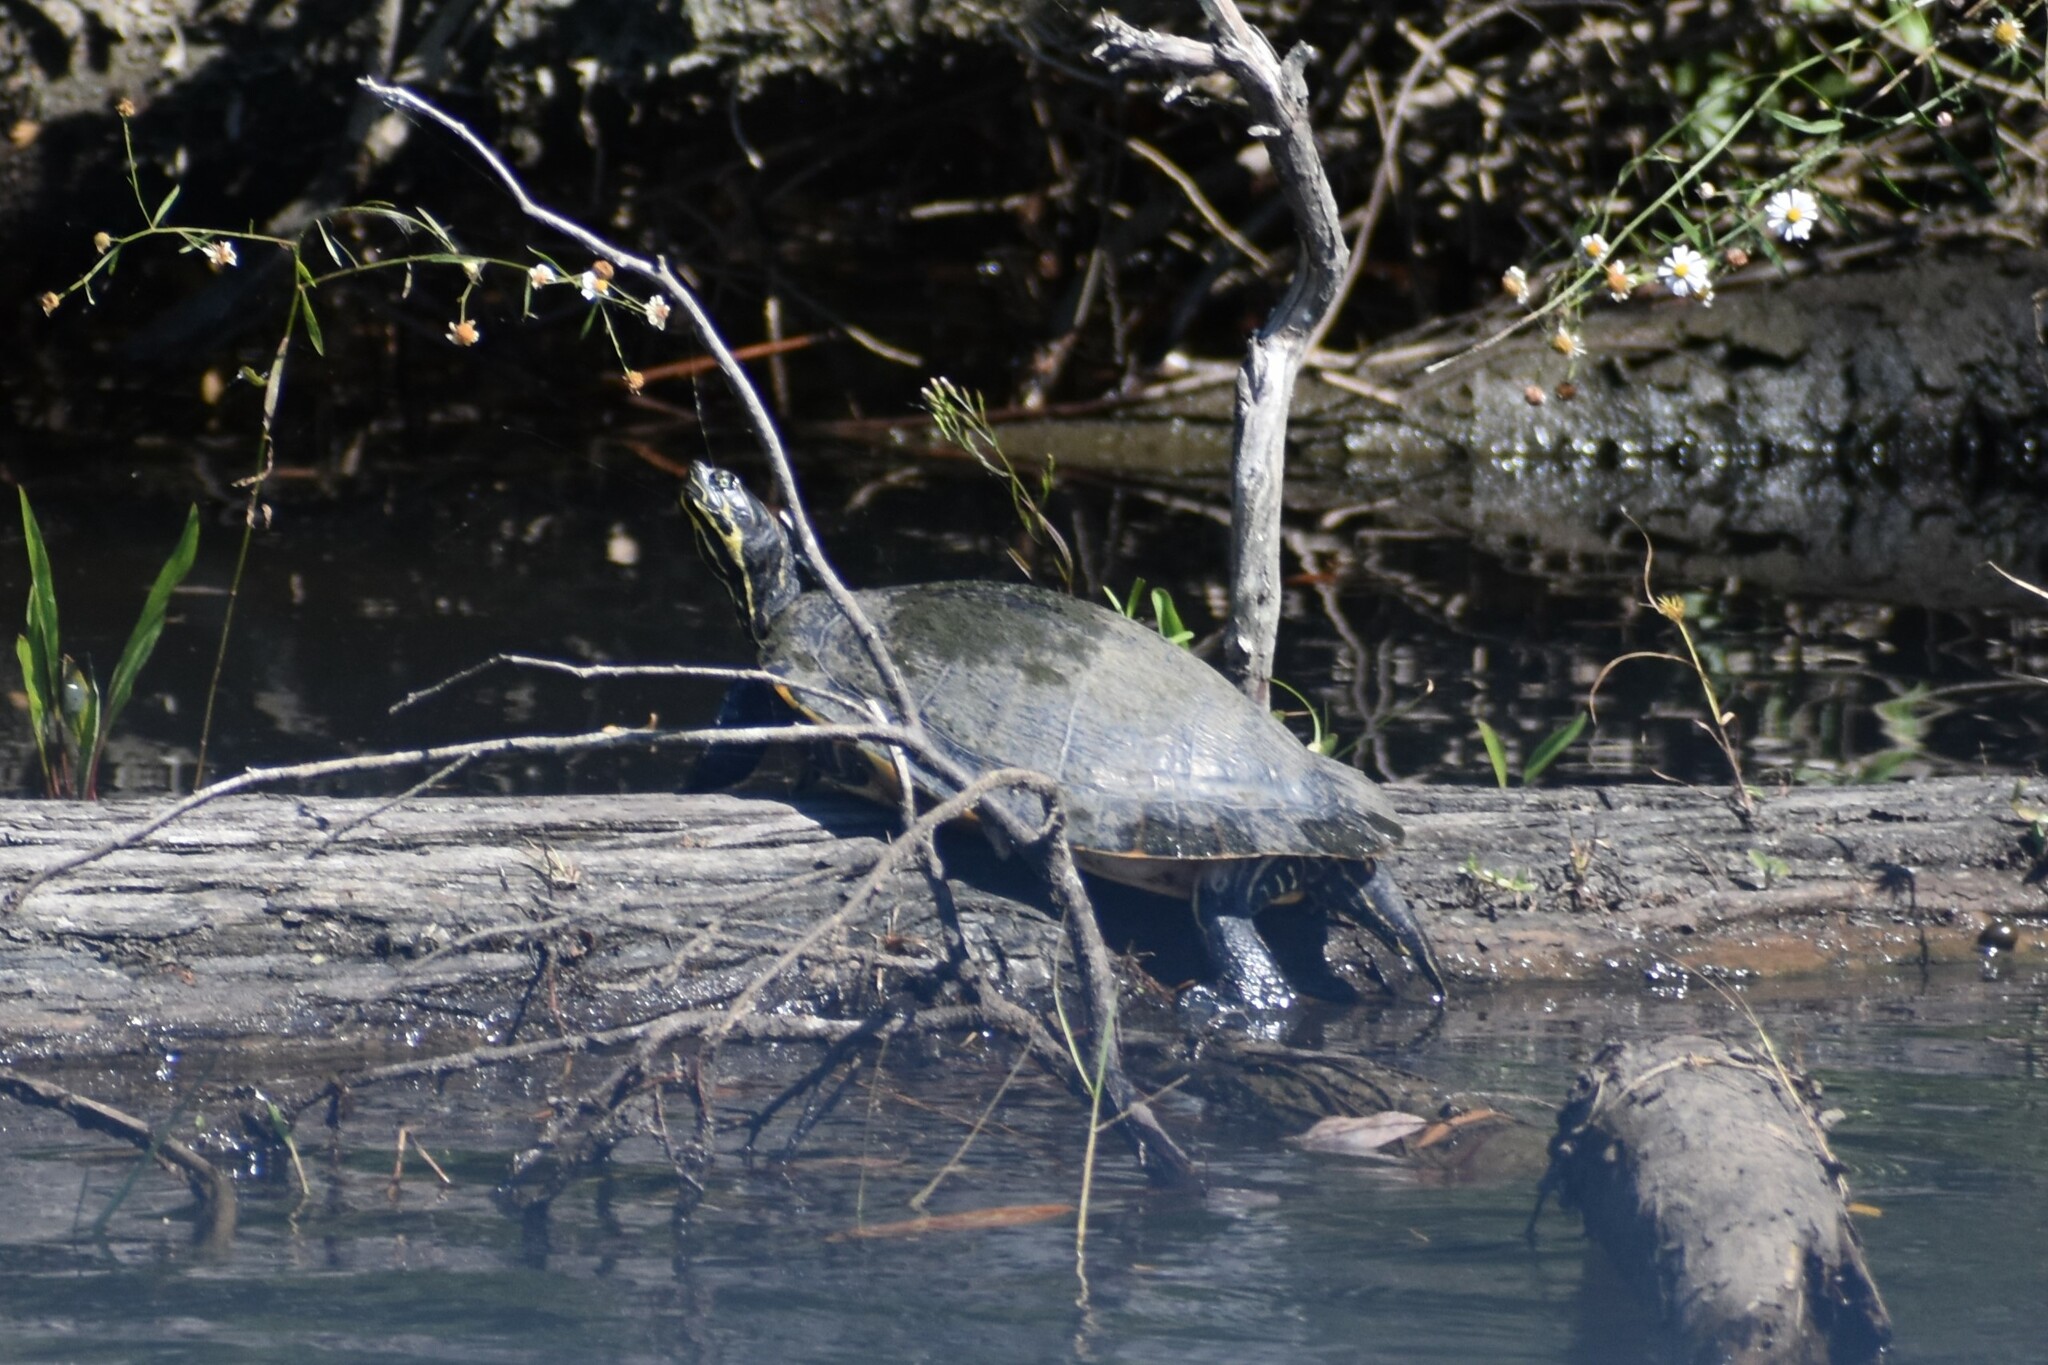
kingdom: Animalia
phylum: Chordata
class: Testudines
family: Emydidae
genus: Pseudemys
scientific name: Pseudemys concinna
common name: Eastern river cooter
